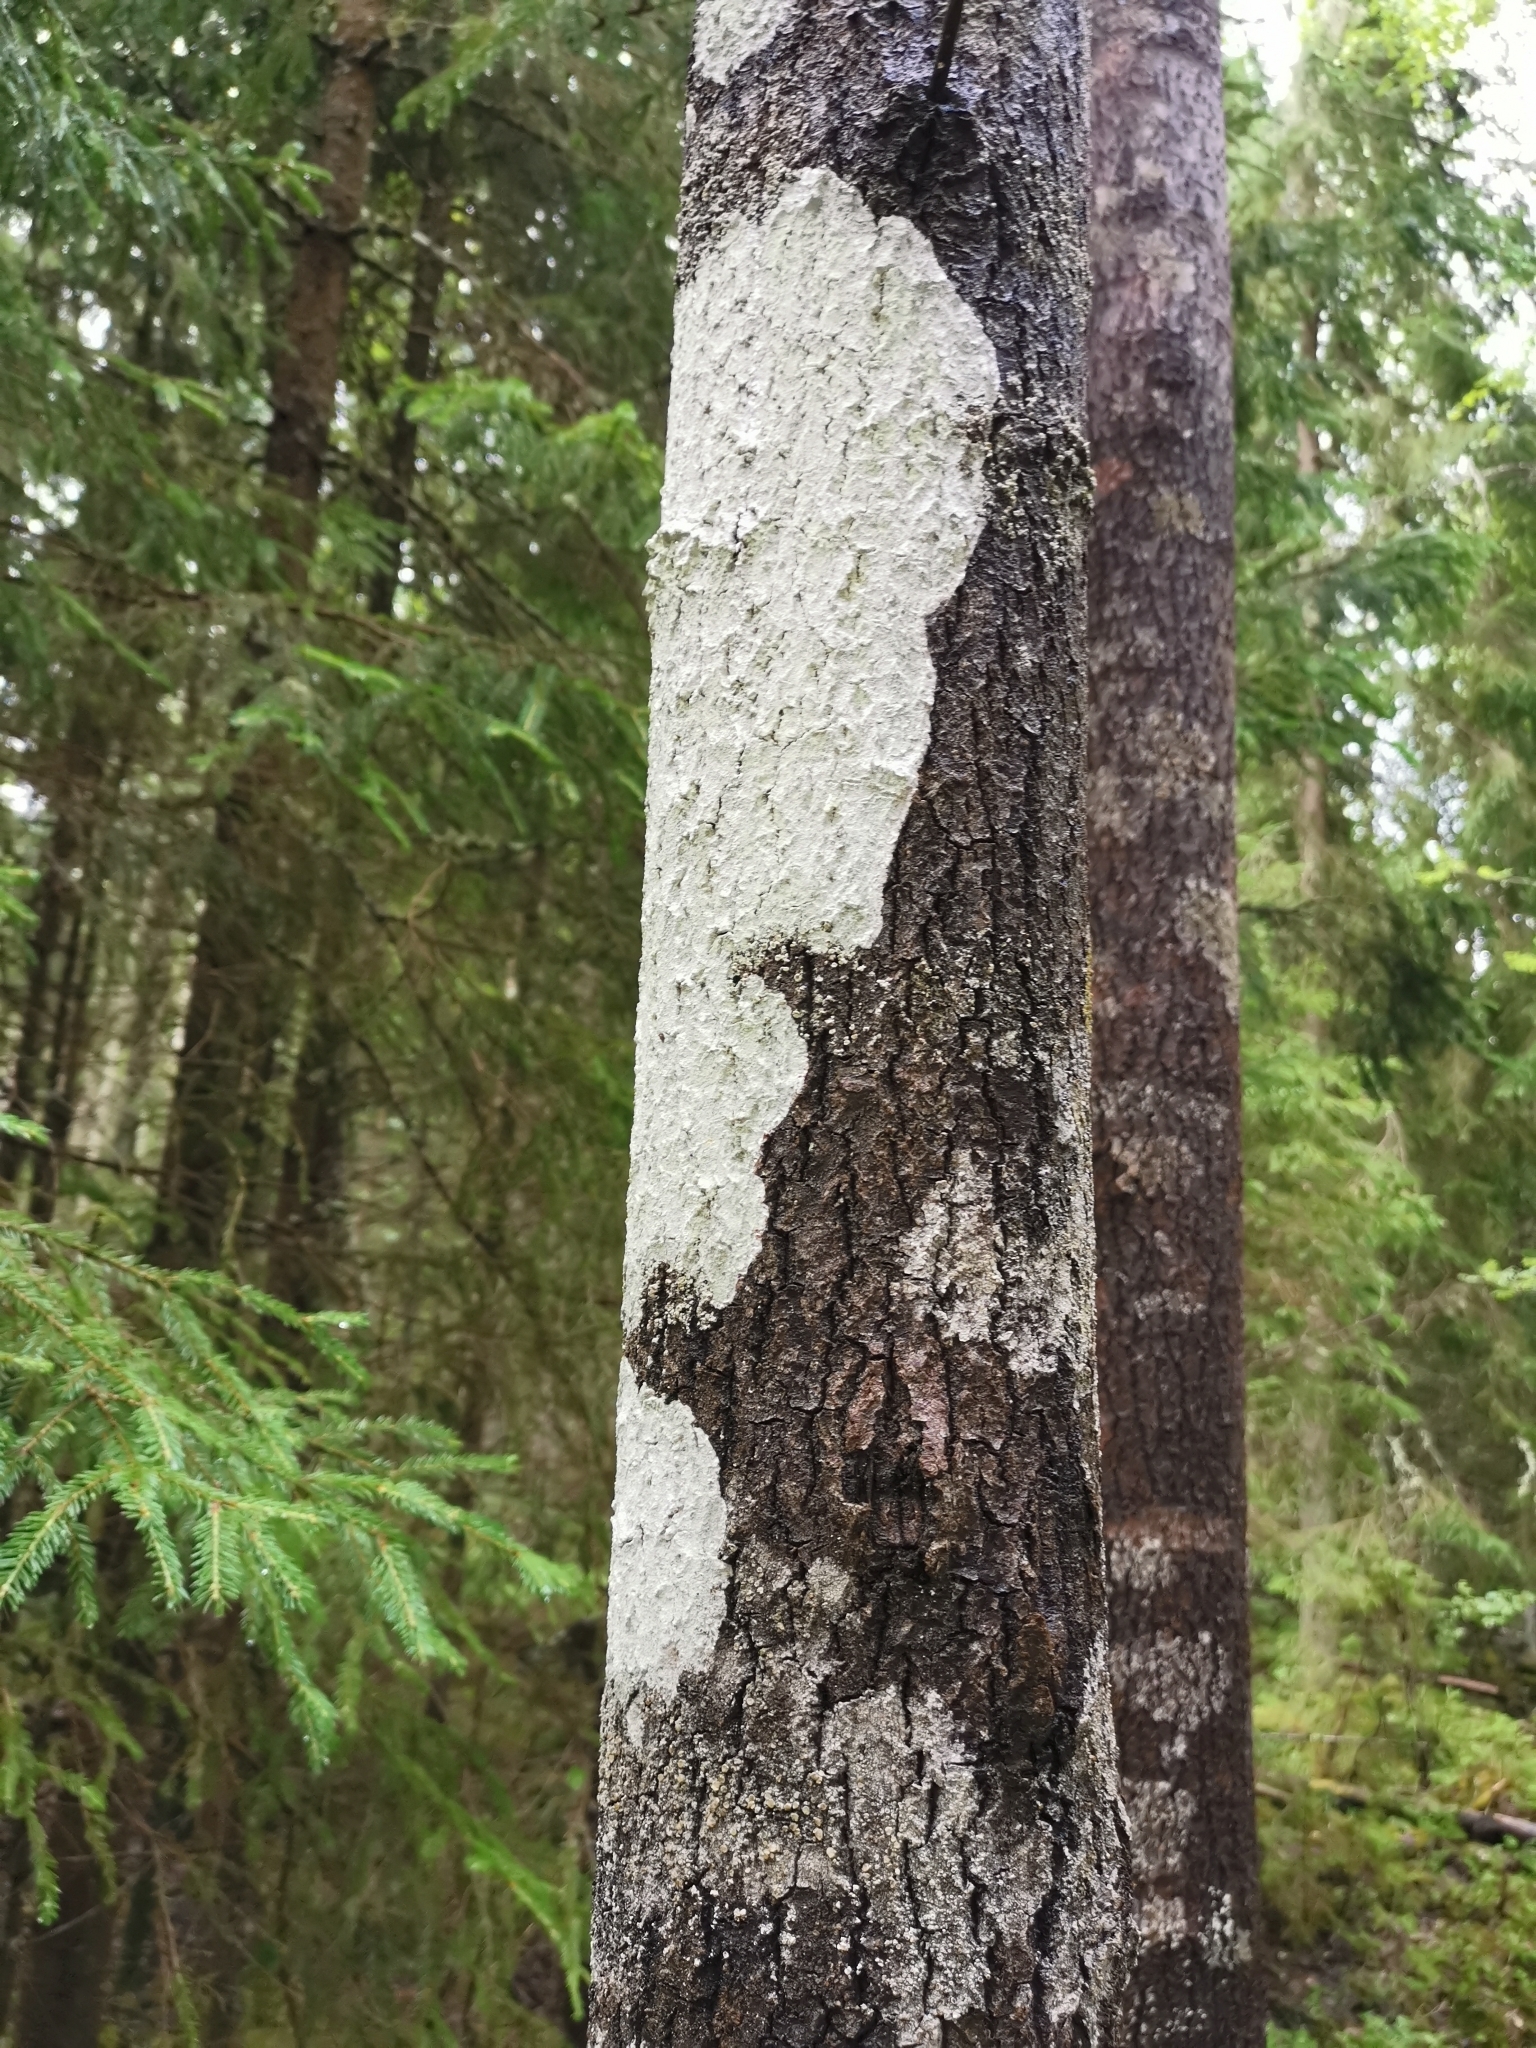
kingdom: Fungi
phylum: Ascomycota
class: Lecanoromycetes
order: Ostropales
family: Phlyctidaceae
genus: Phlyctis
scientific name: Phlyctis argena
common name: Whitewash lichen
